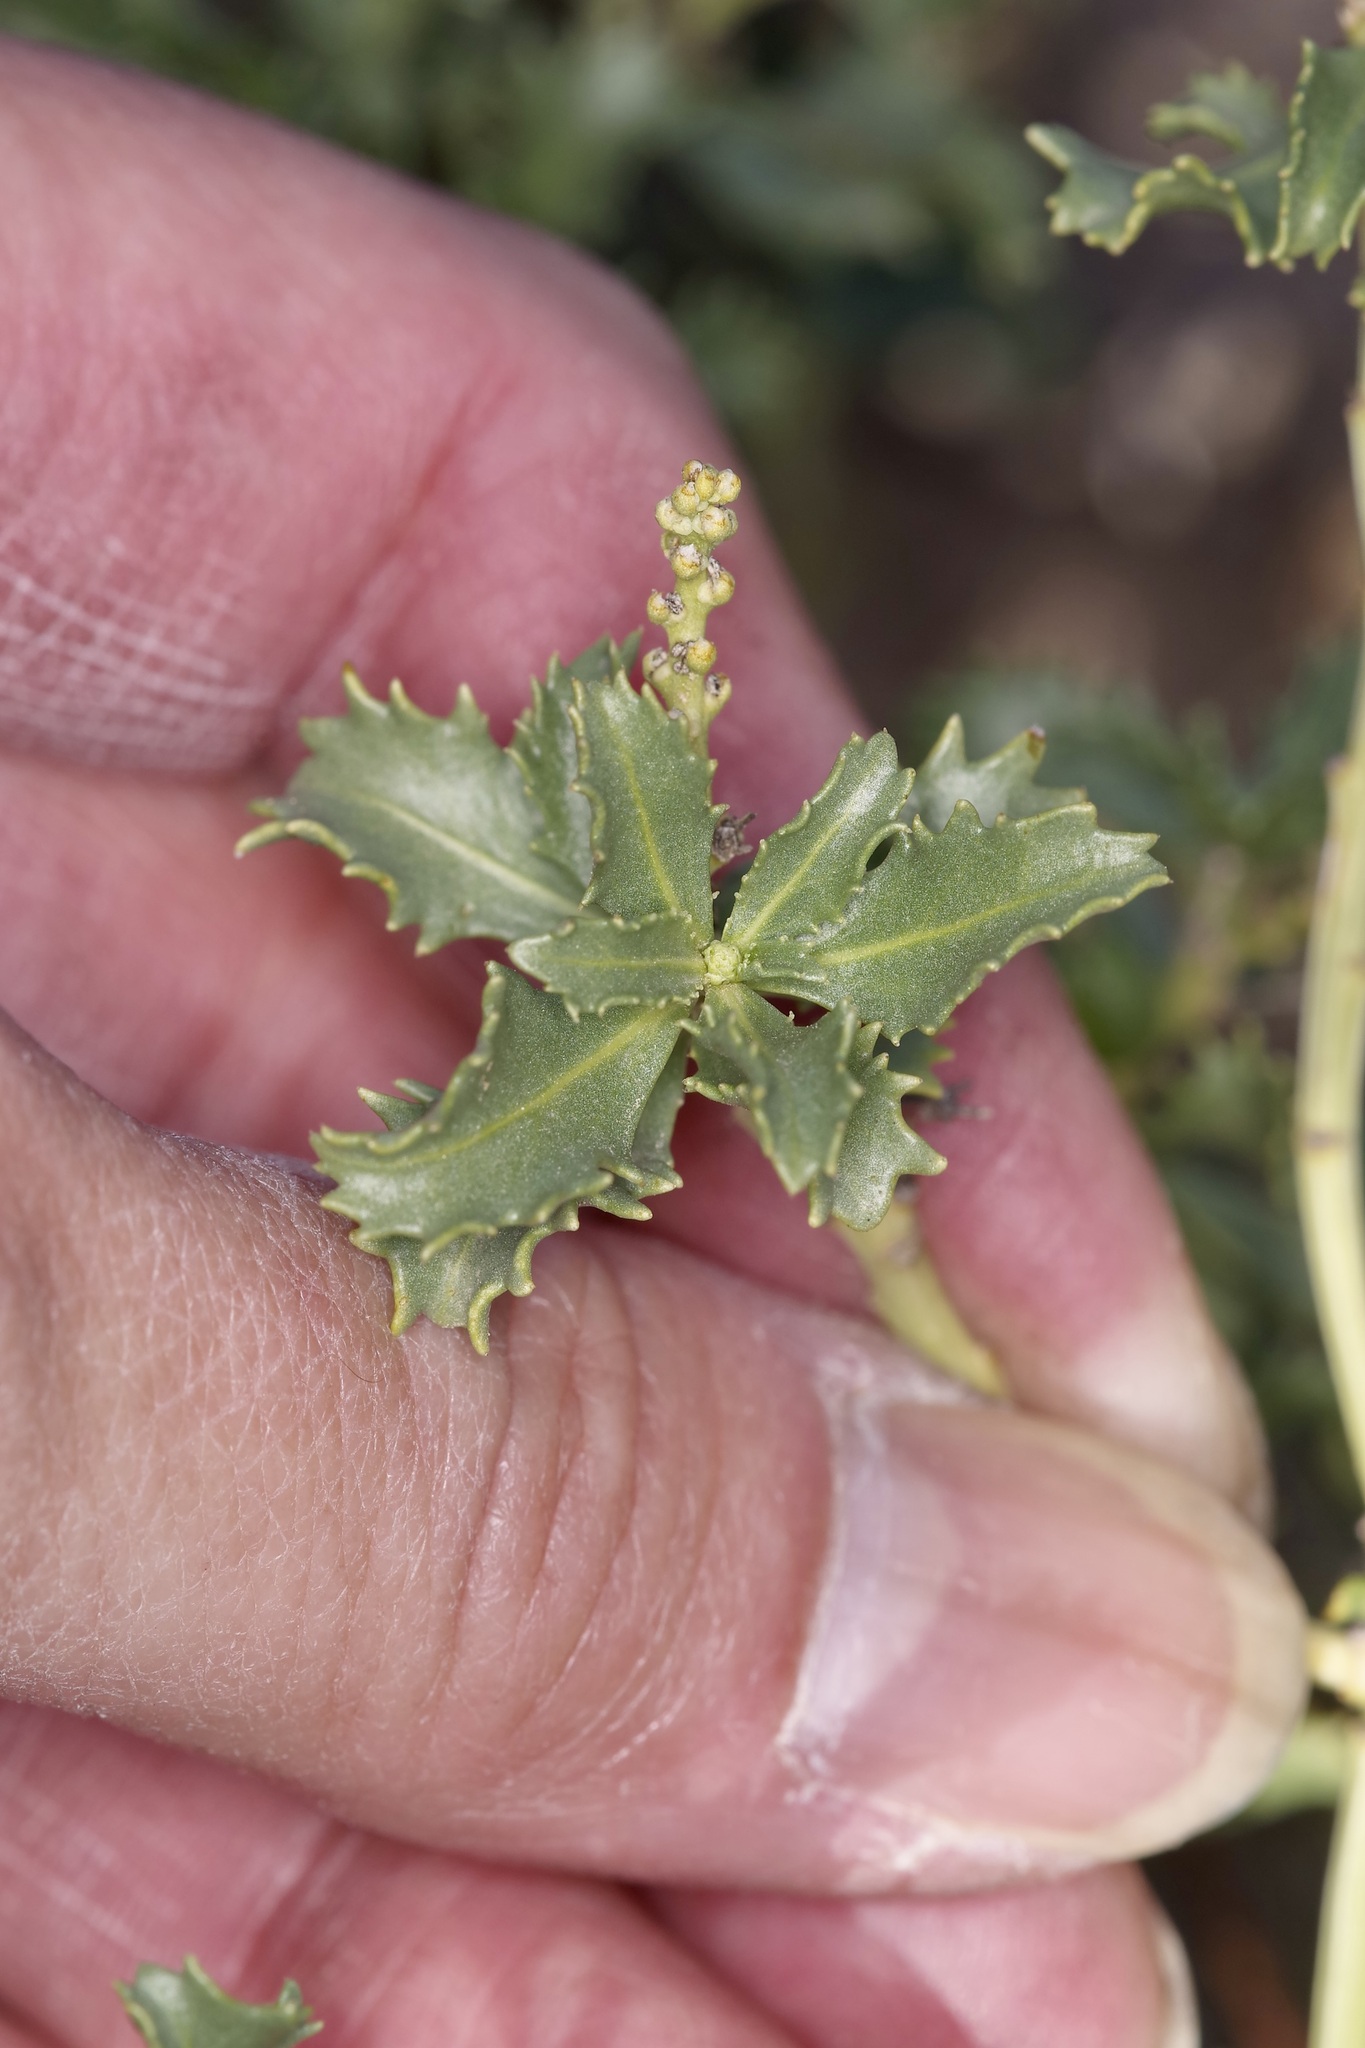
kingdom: Plantae
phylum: Tracheophyta
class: Magnoliopsida
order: Malpighiales
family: Euphorbiaceae
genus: Stillingia
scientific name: Stillingia treculiana
